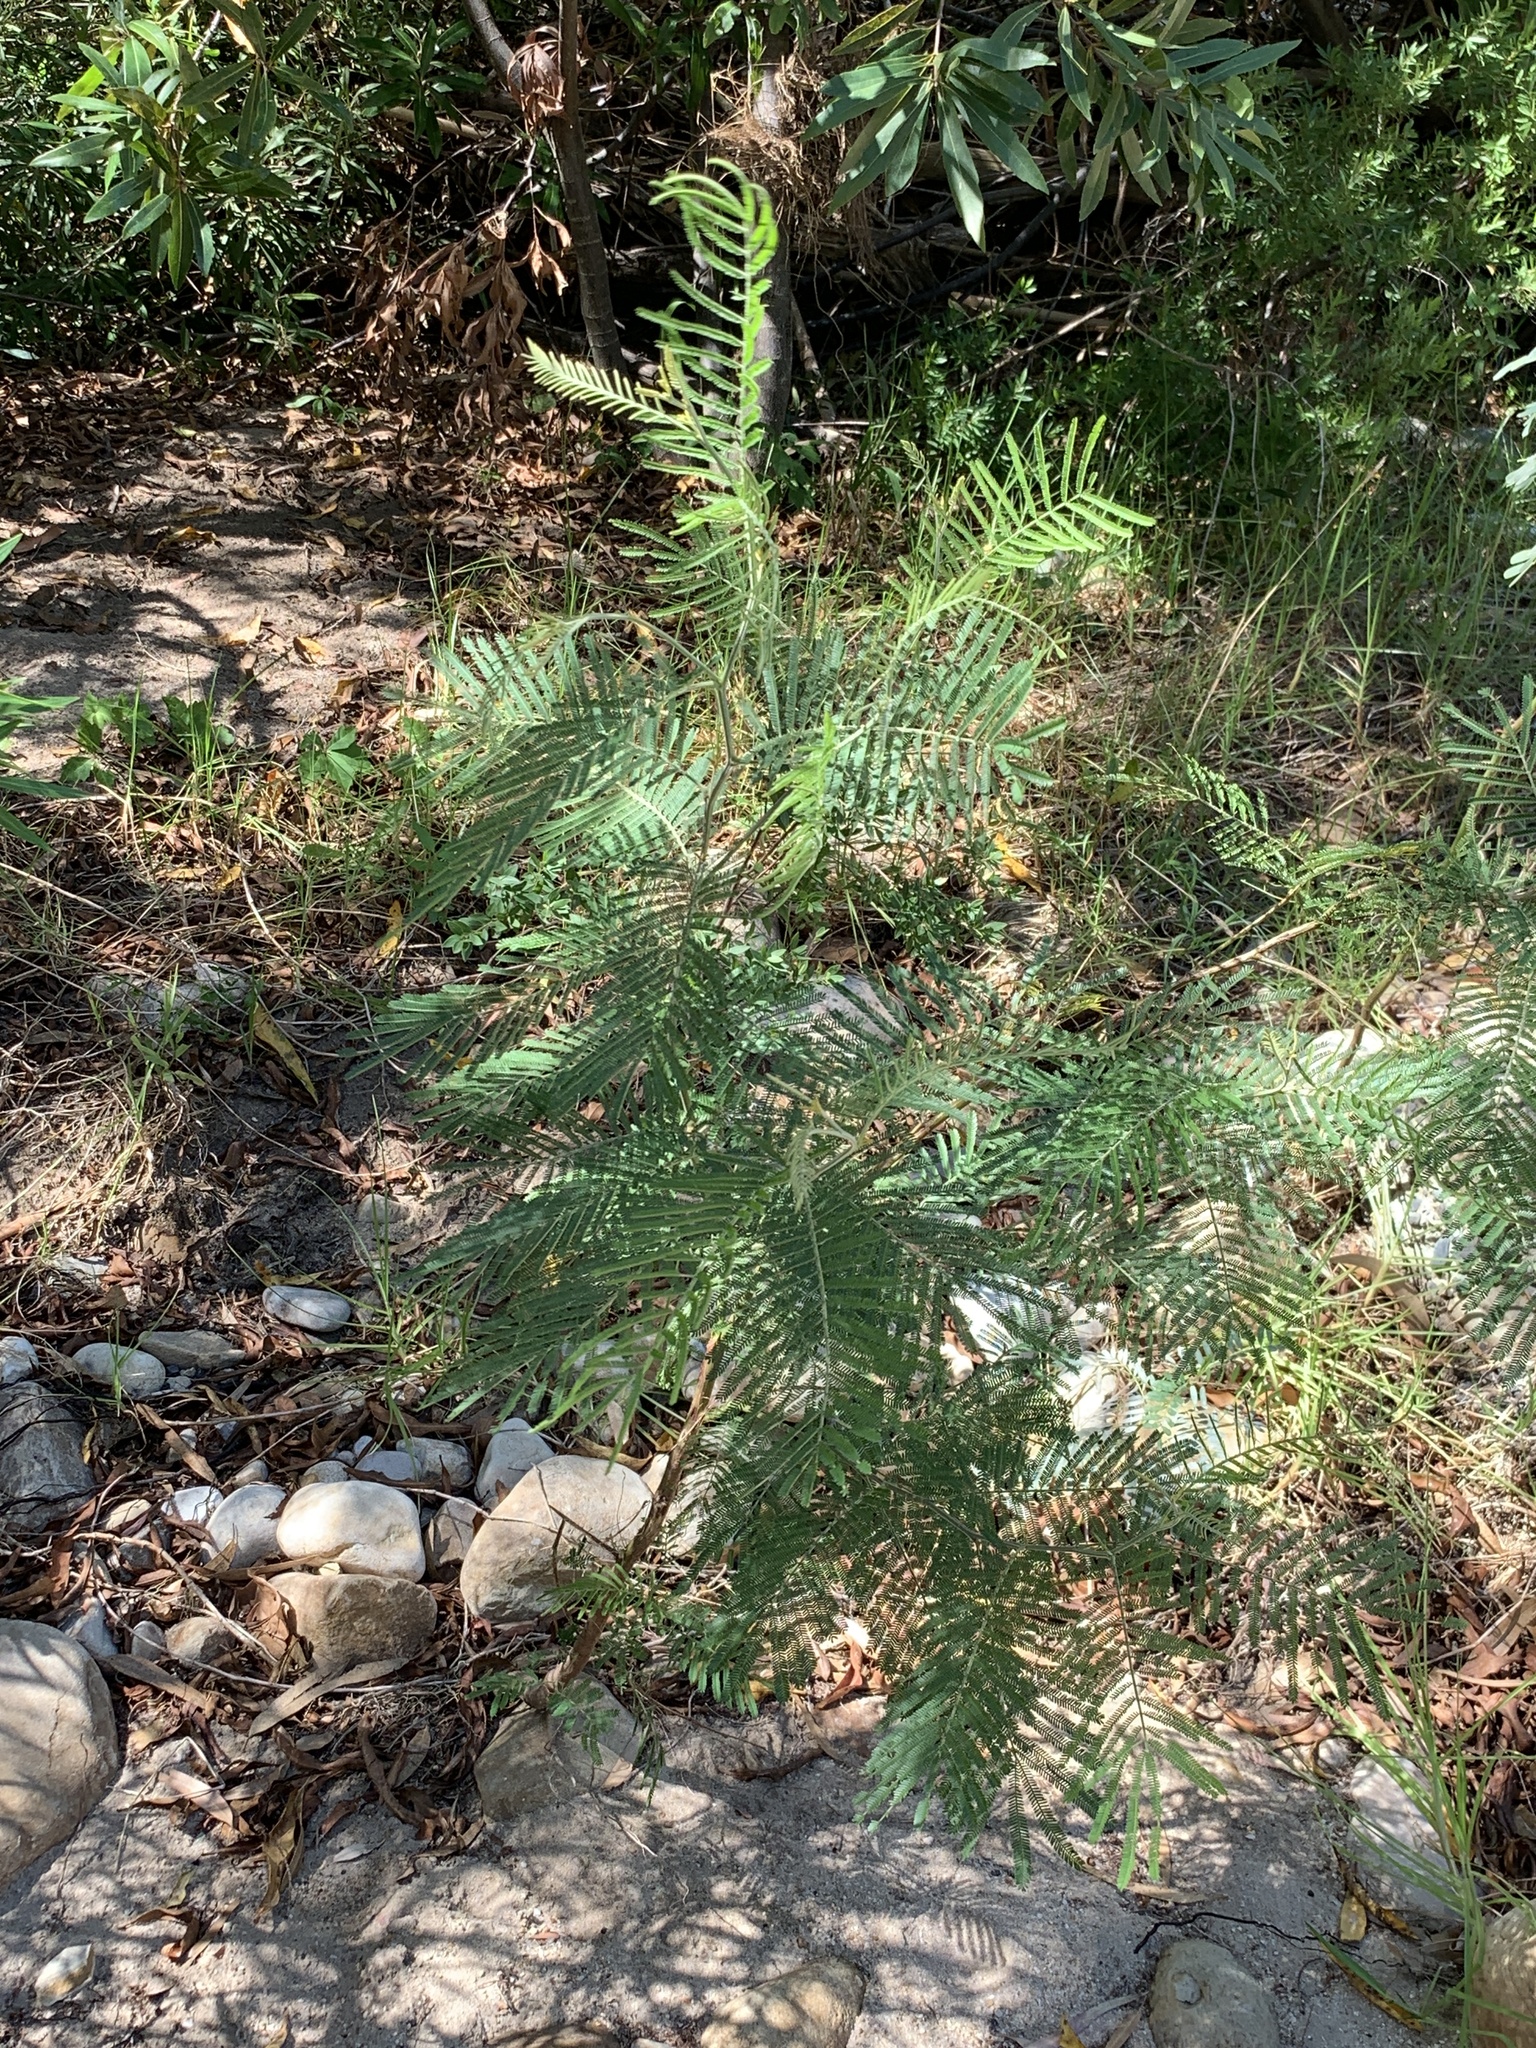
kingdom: Plantae
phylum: Tracheophyta
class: Magnoliopsida
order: Fabales
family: Fabaceae
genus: Acacia
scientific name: Acacia mearnsii
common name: Black wattle
